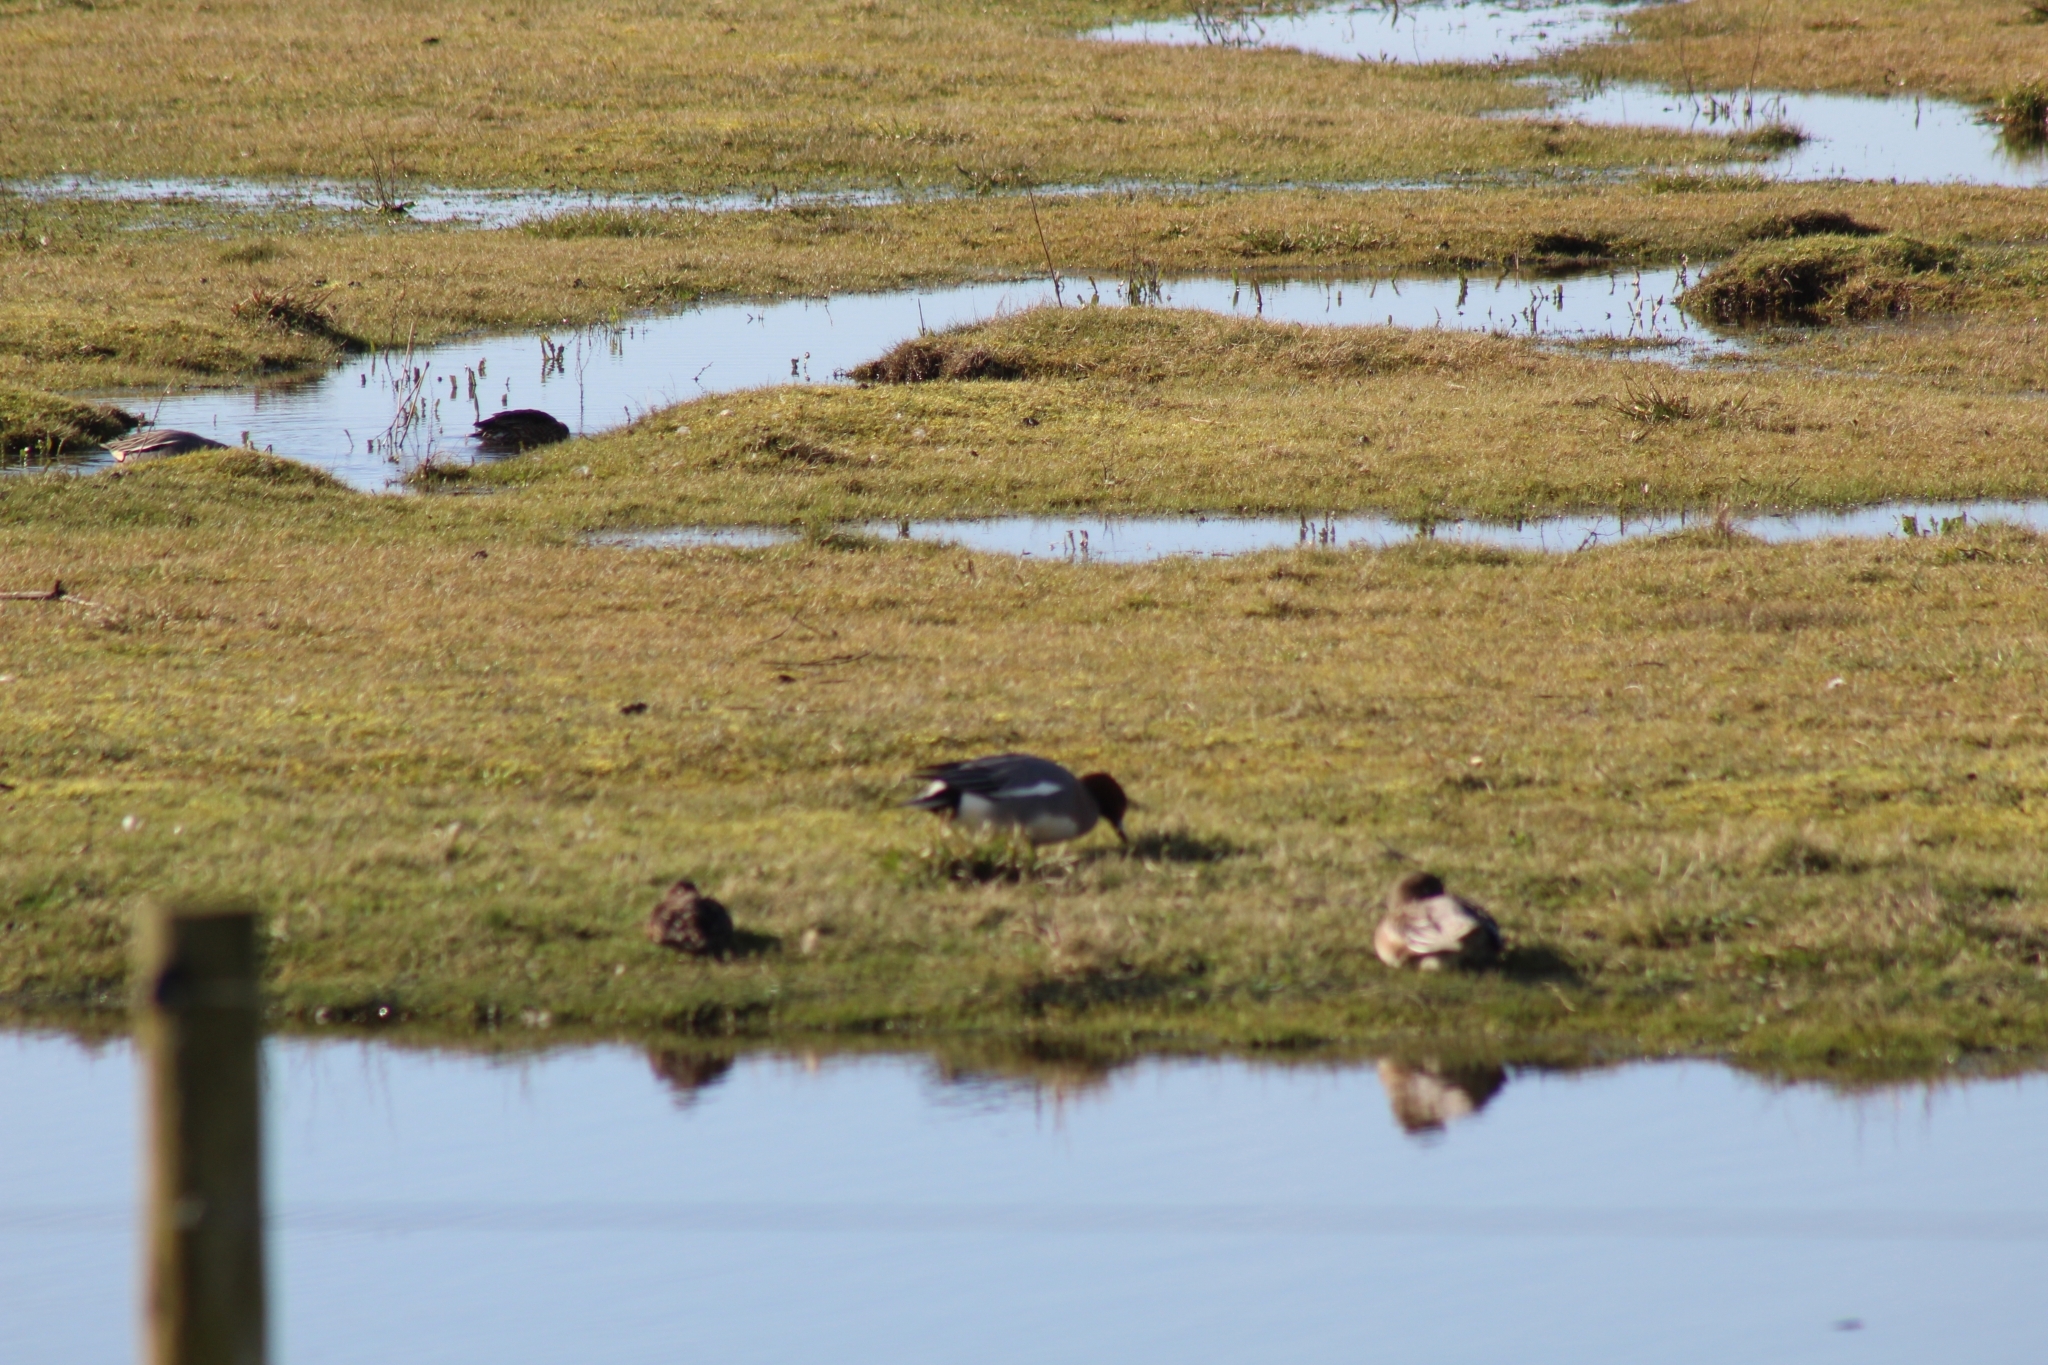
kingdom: Animalia
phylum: Chordata
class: Aves
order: Anseriformes
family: Anatidae
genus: Mareca
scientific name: Mareca penelope
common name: Eurasian wigeon
